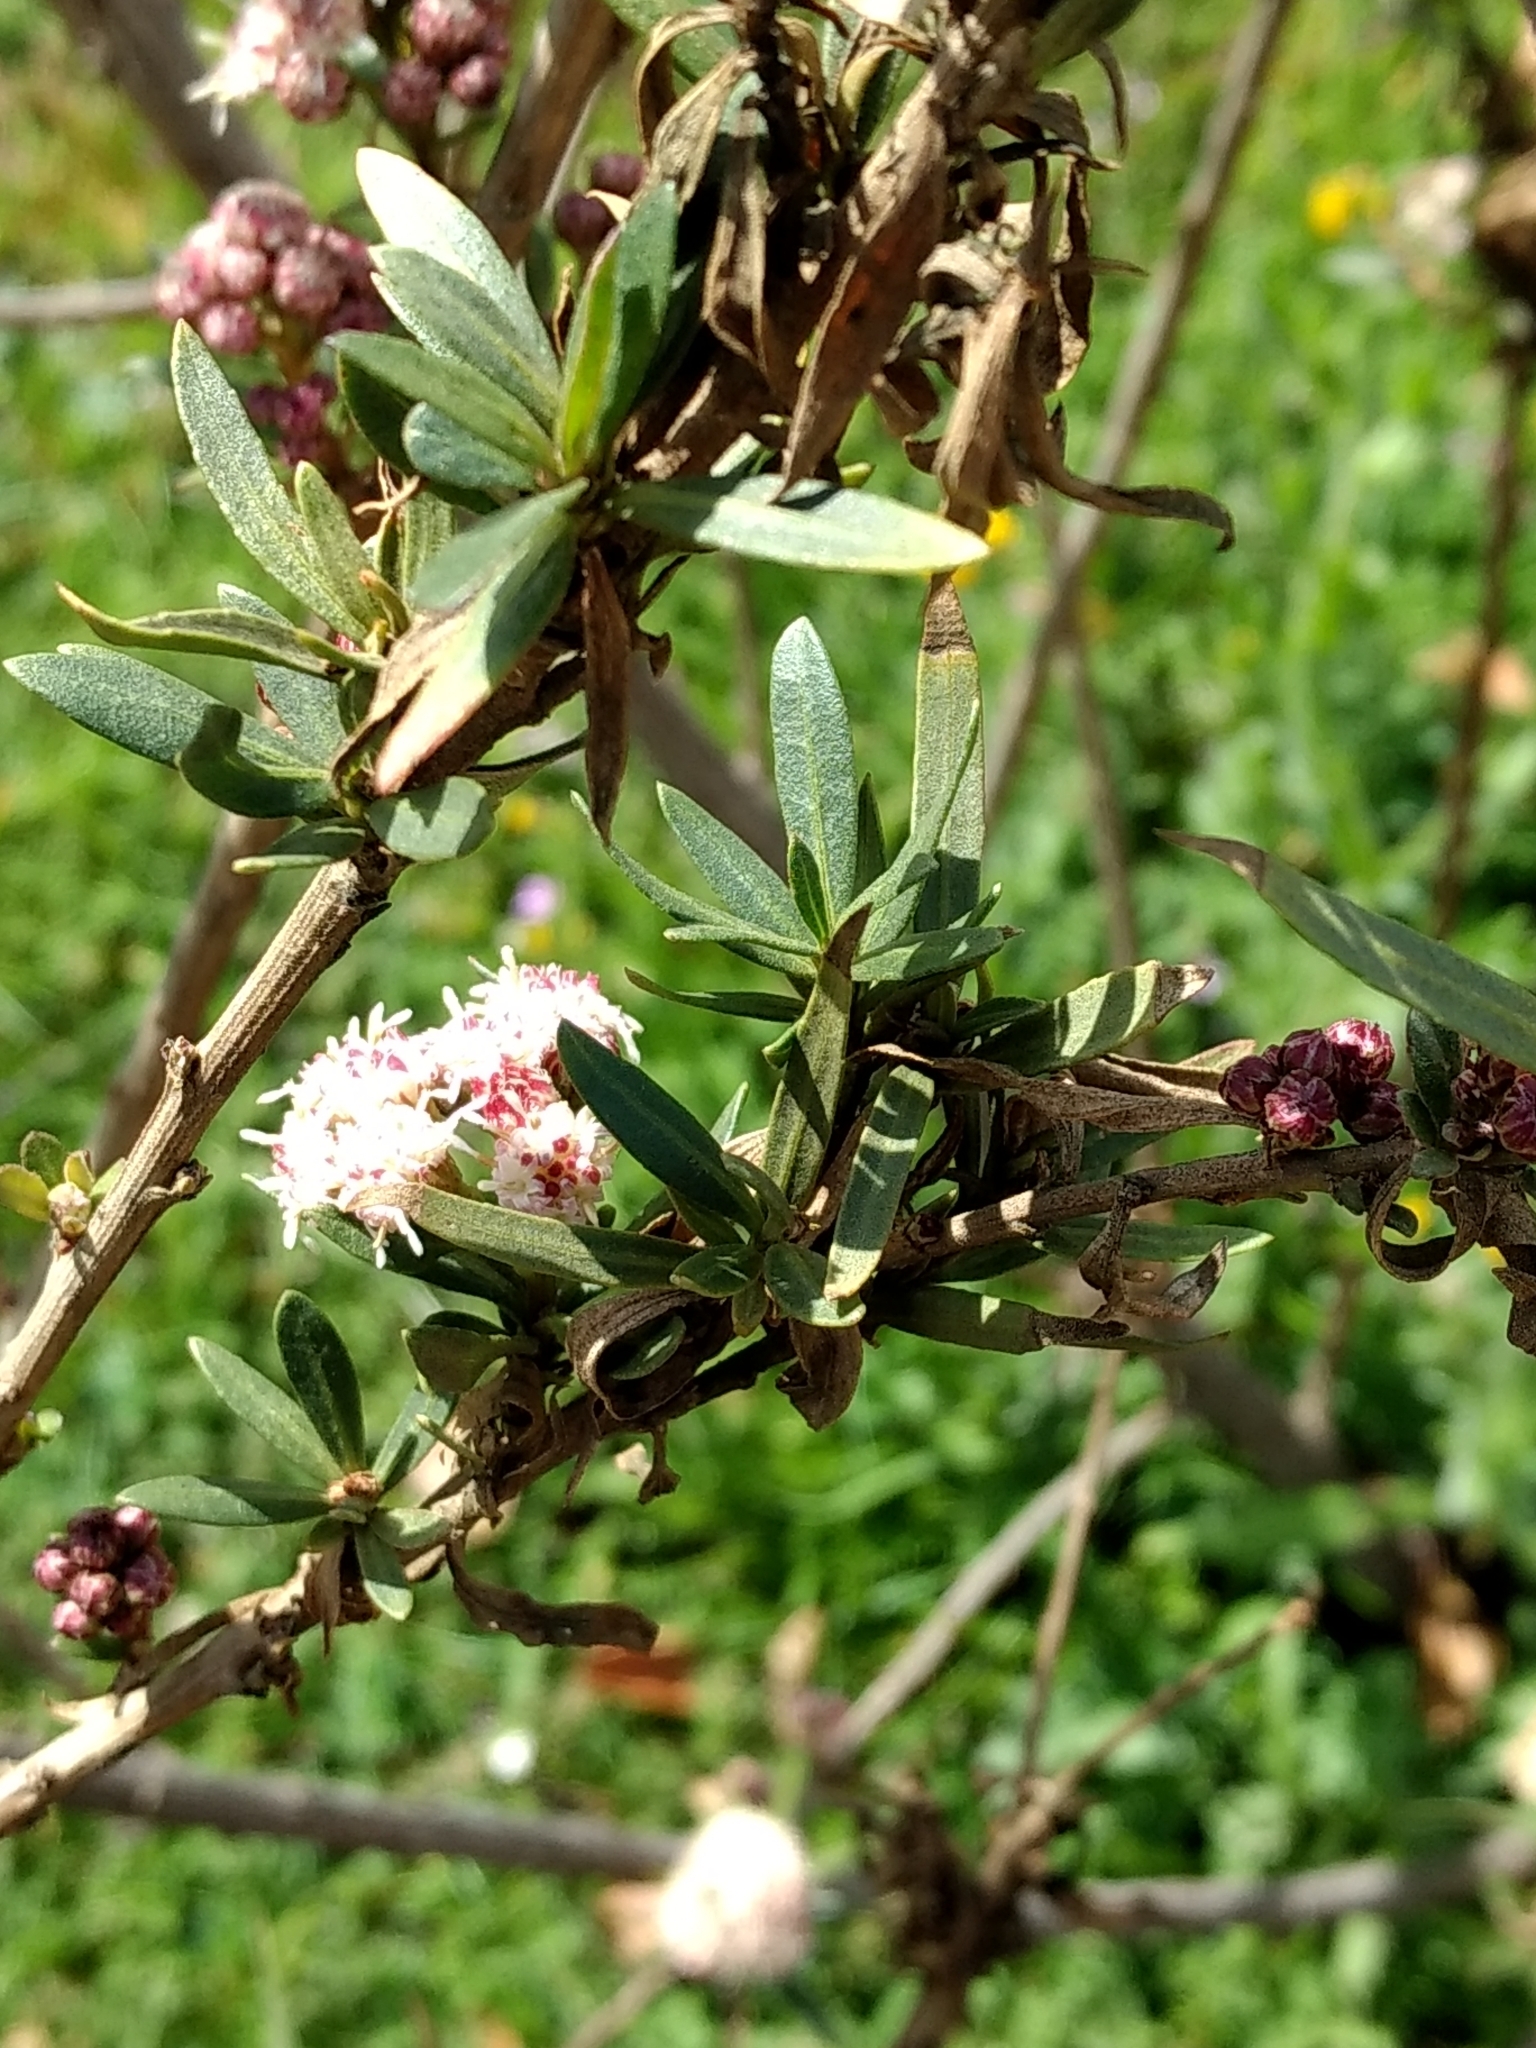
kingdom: Plantae
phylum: Tracheophyta
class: Magnoliopsida
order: Asterales
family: Asteraceae
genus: Baccharis
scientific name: Baccharis salicifolia
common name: Sticky baccharis
